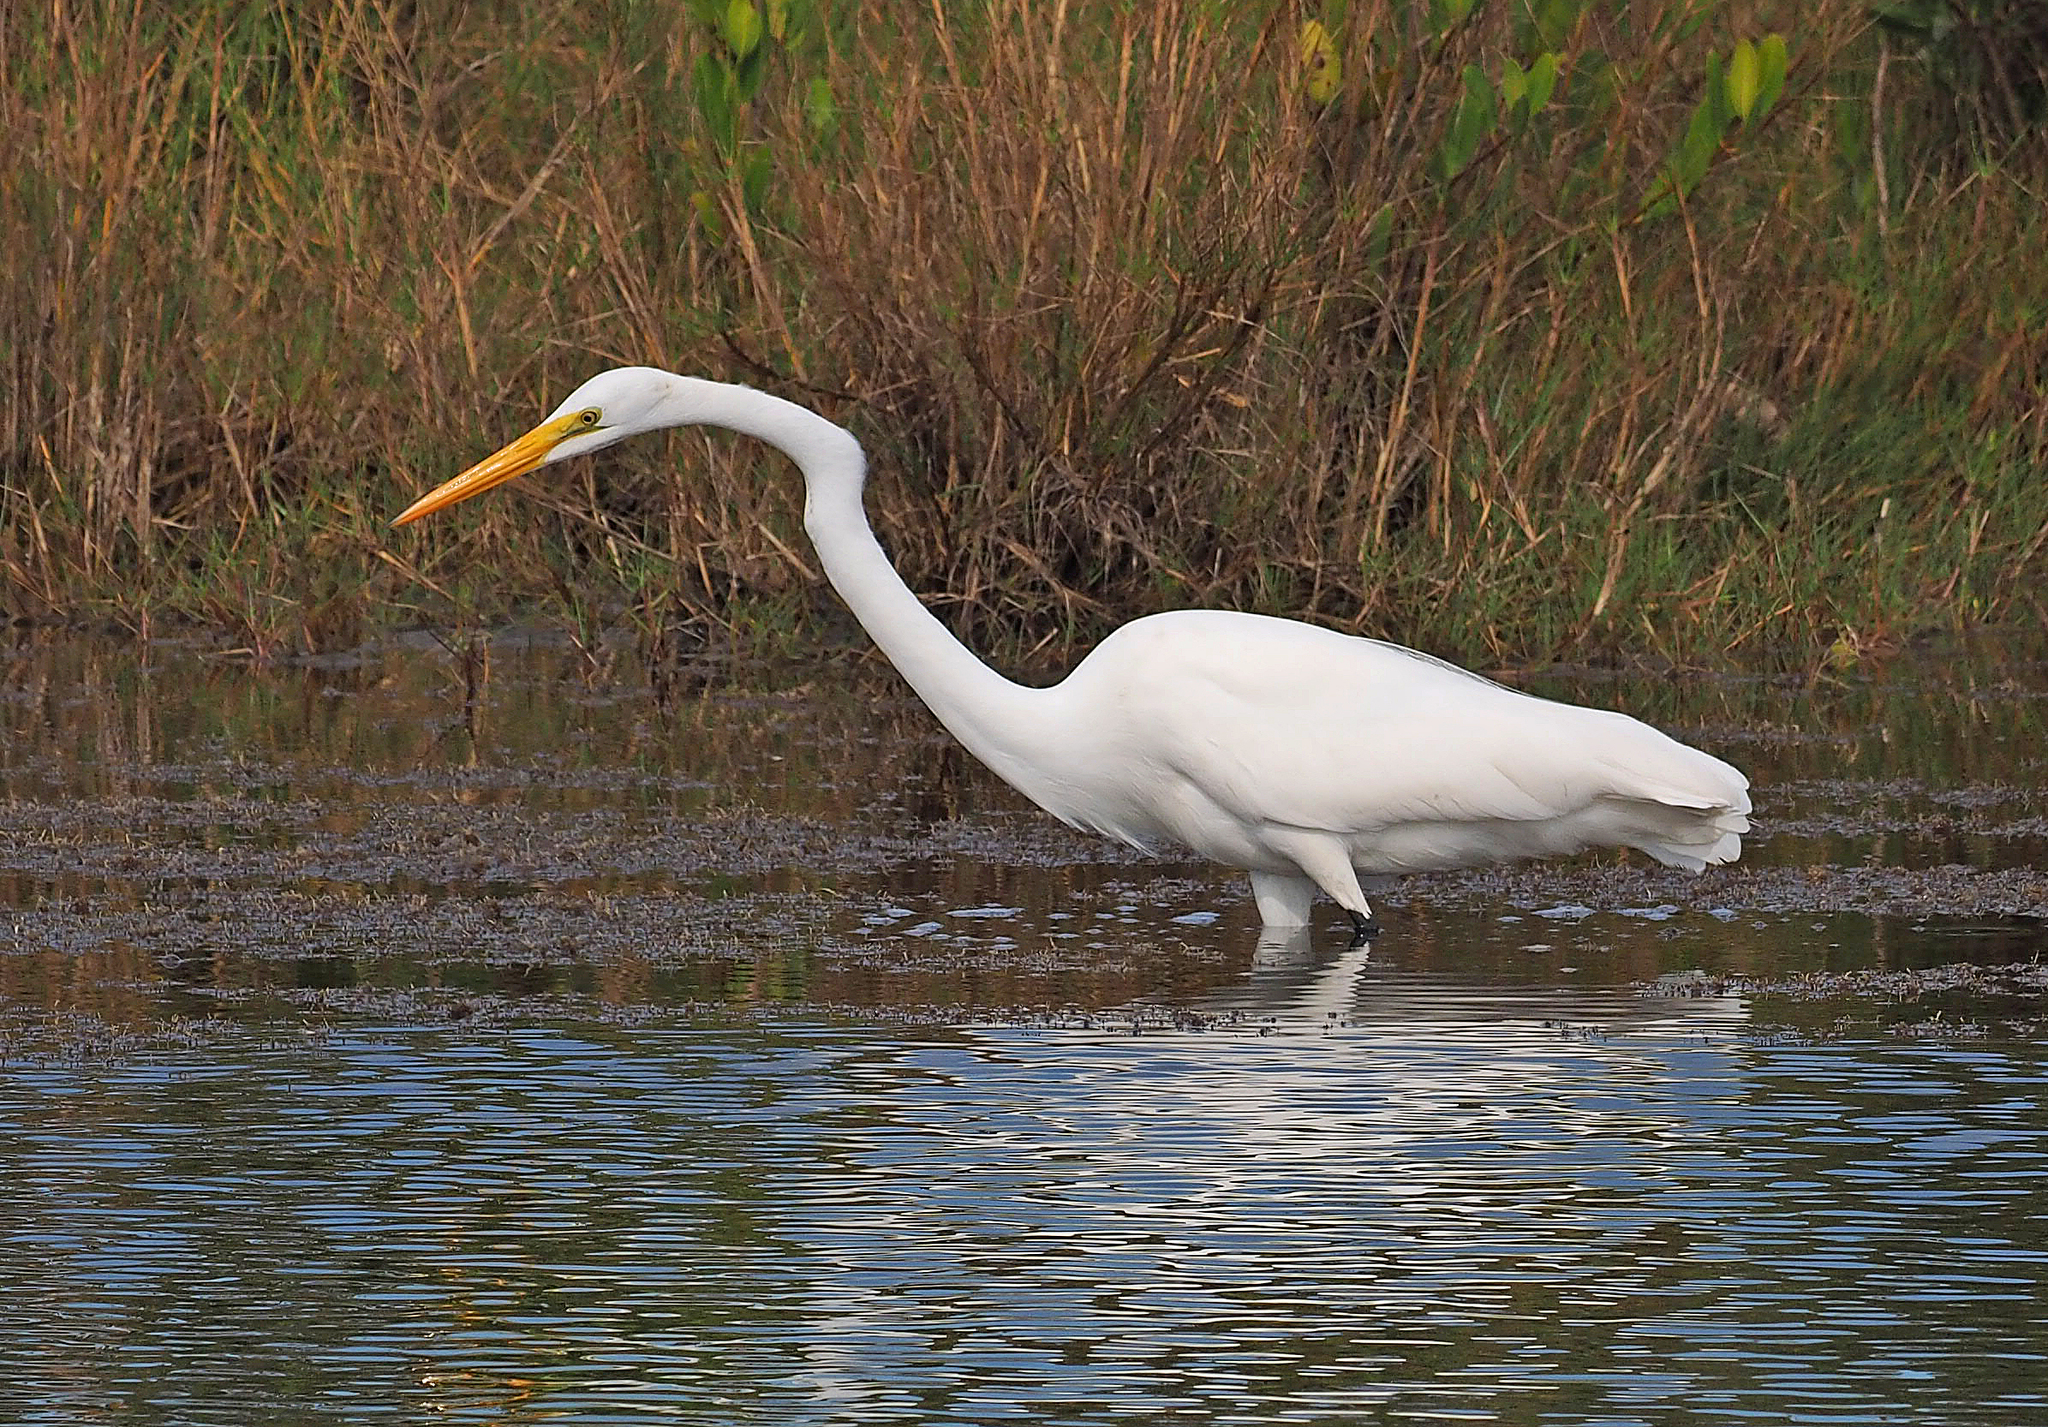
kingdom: Animalia
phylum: Chordata
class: Aves
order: Pelecaniformes
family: Ardeidae
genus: Ardea
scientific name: Ardea alba
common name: Great egret
